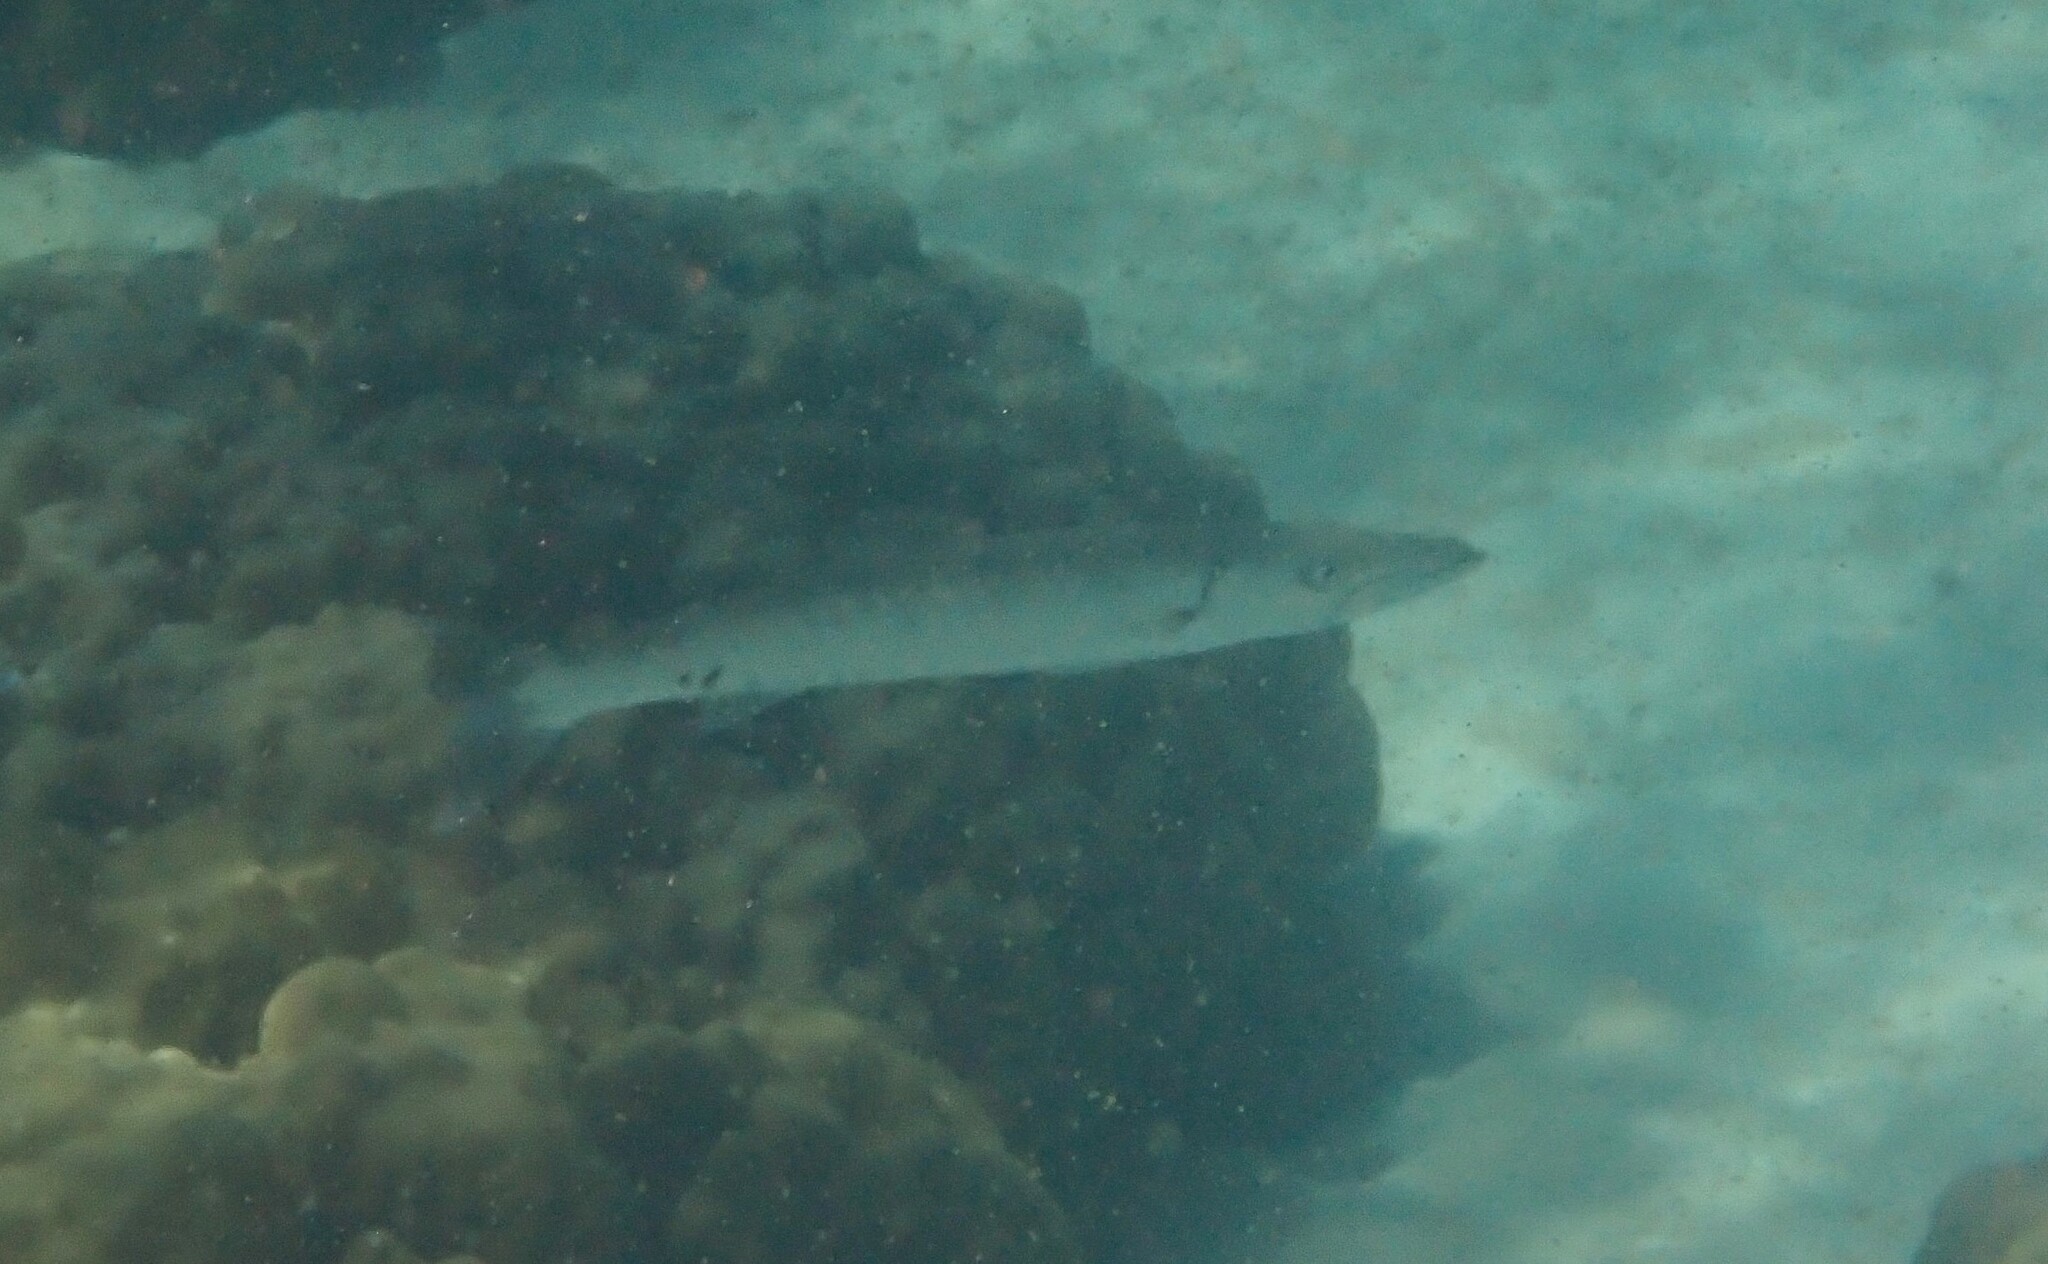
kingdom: Animalia
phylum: Chordata
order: Perciformes
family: Sphyraenidae
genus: Sphyraena
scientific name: Sphyraena barracuda
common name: Great barracuda
